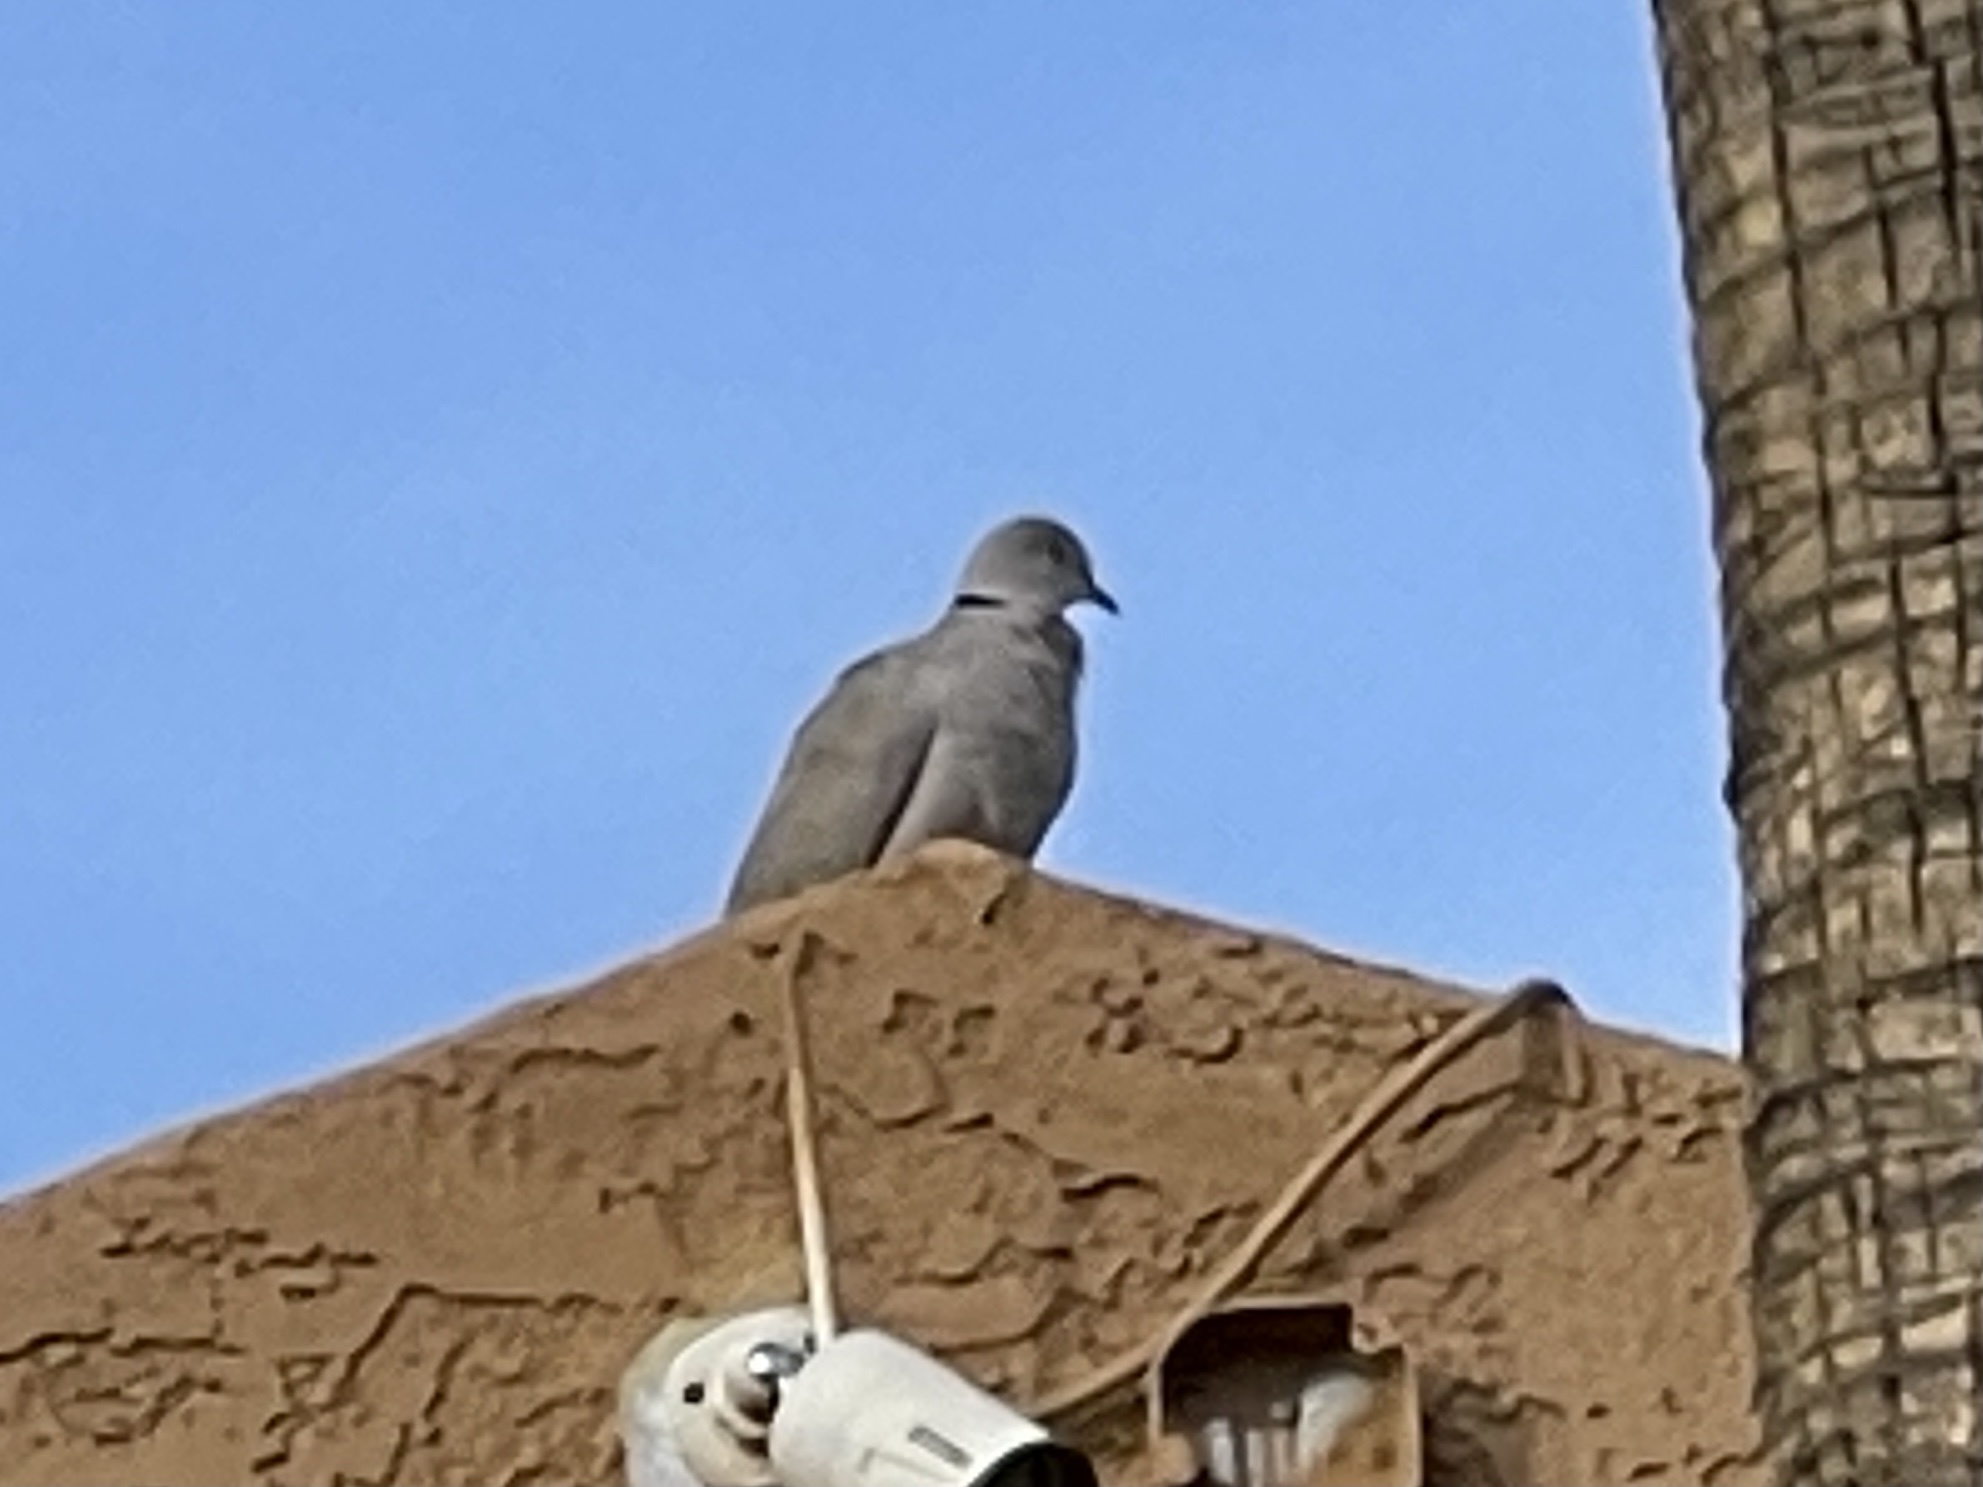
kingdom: Animalia
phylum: Chordata
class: Aves
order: Columbiformes
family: Columbidae
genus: Streptopelia
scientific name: Streptopelia decaocto
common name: Eurasian collared dove
